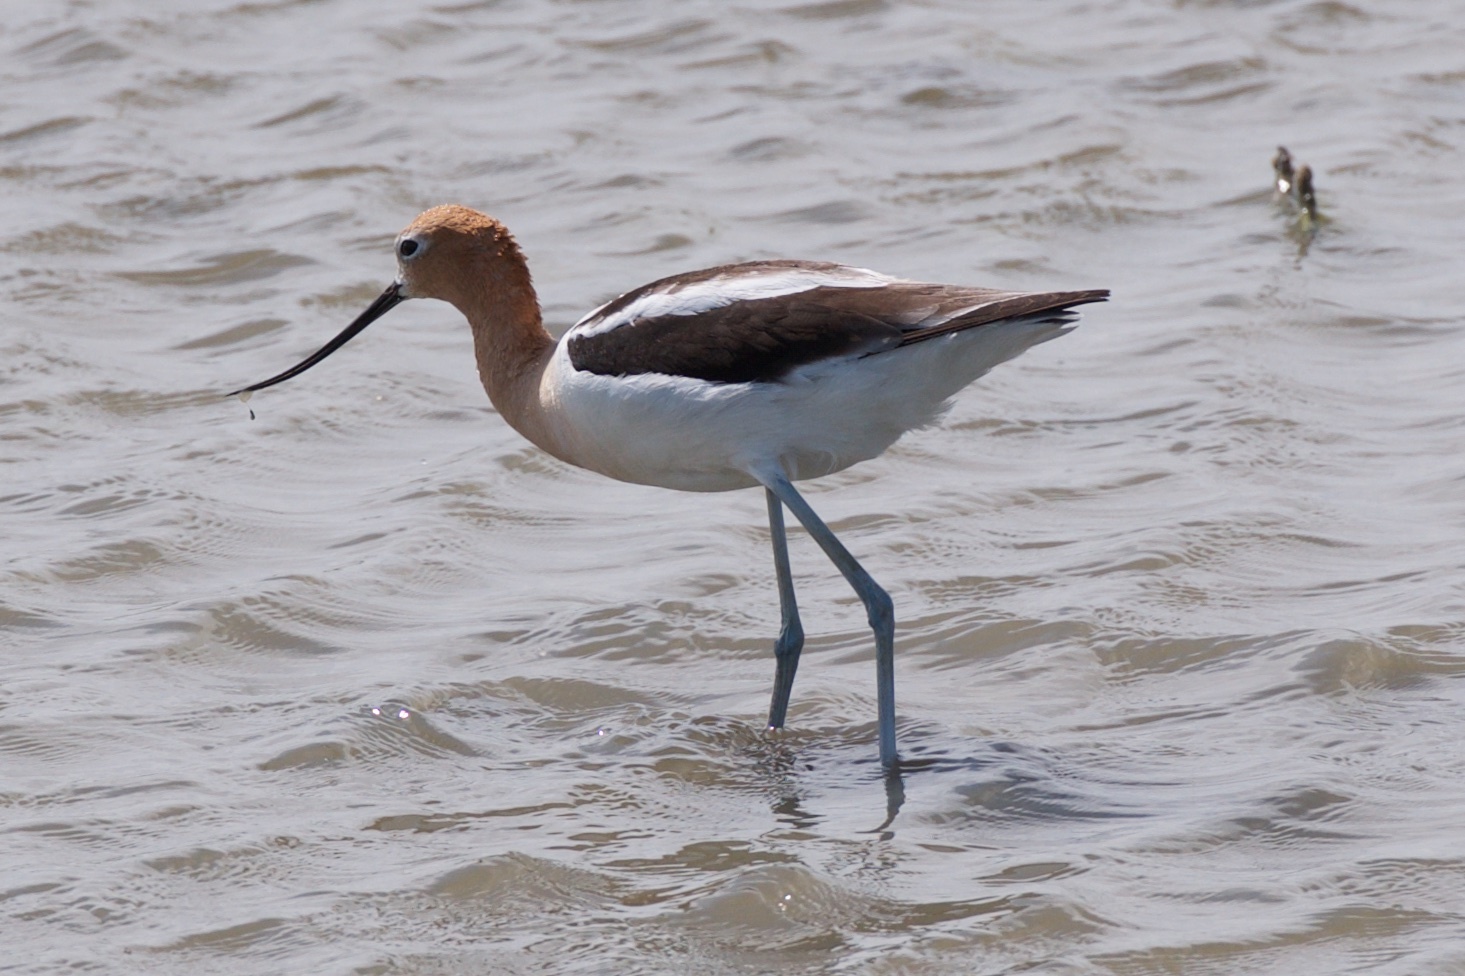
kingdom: Animalia
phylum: Chordata
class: Aves
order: Charadriiformes
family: Recurvirostridae
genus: Recurvirostra
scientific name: Recurvirostra americana
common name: American avocet
